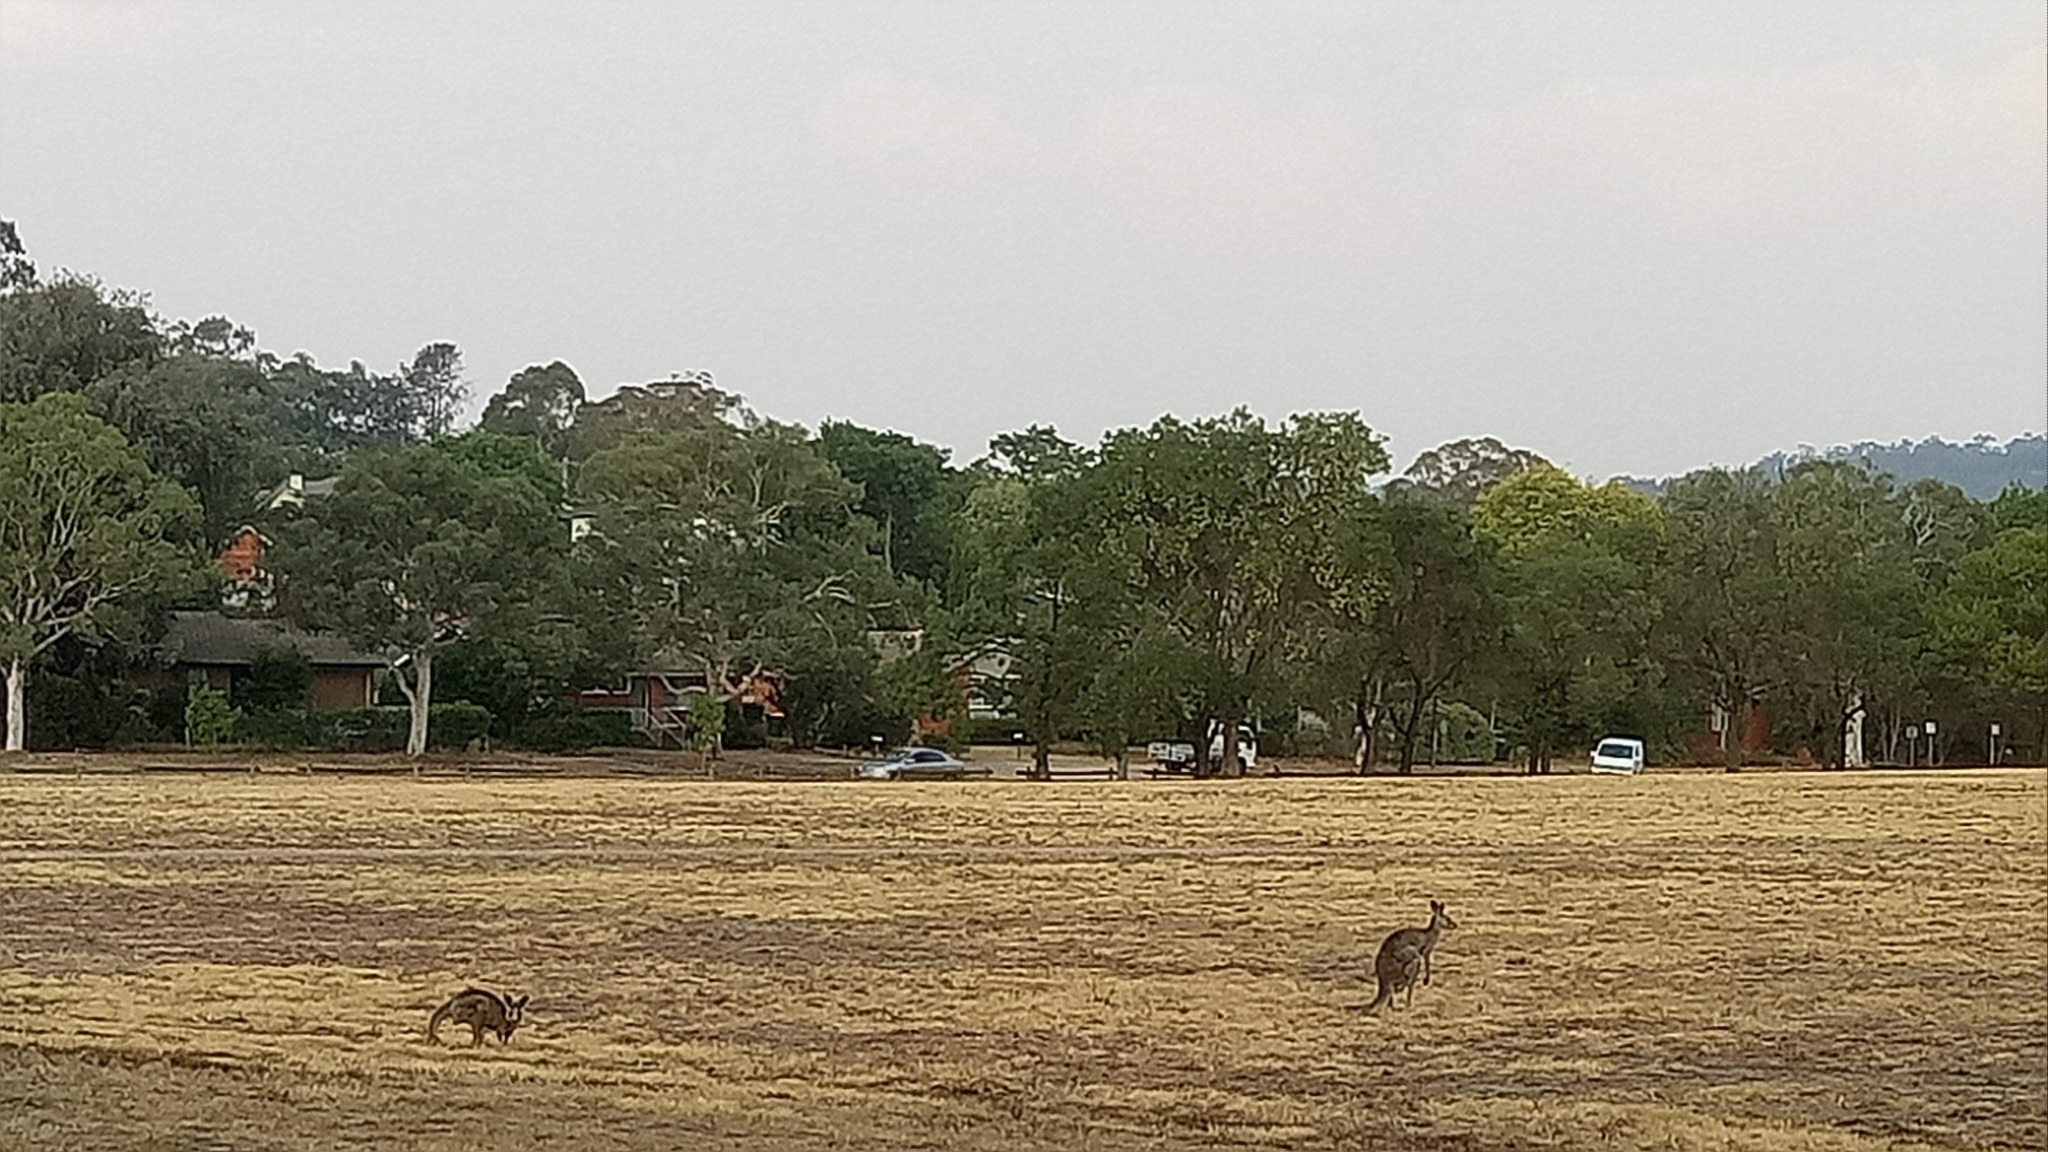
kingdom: Animalia
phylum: Chordata
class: Mammalia
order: Diprotodontia
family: Macropodidae
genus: Macropus
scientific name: Macropus giganteus
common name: Eastern grey kangaroo
